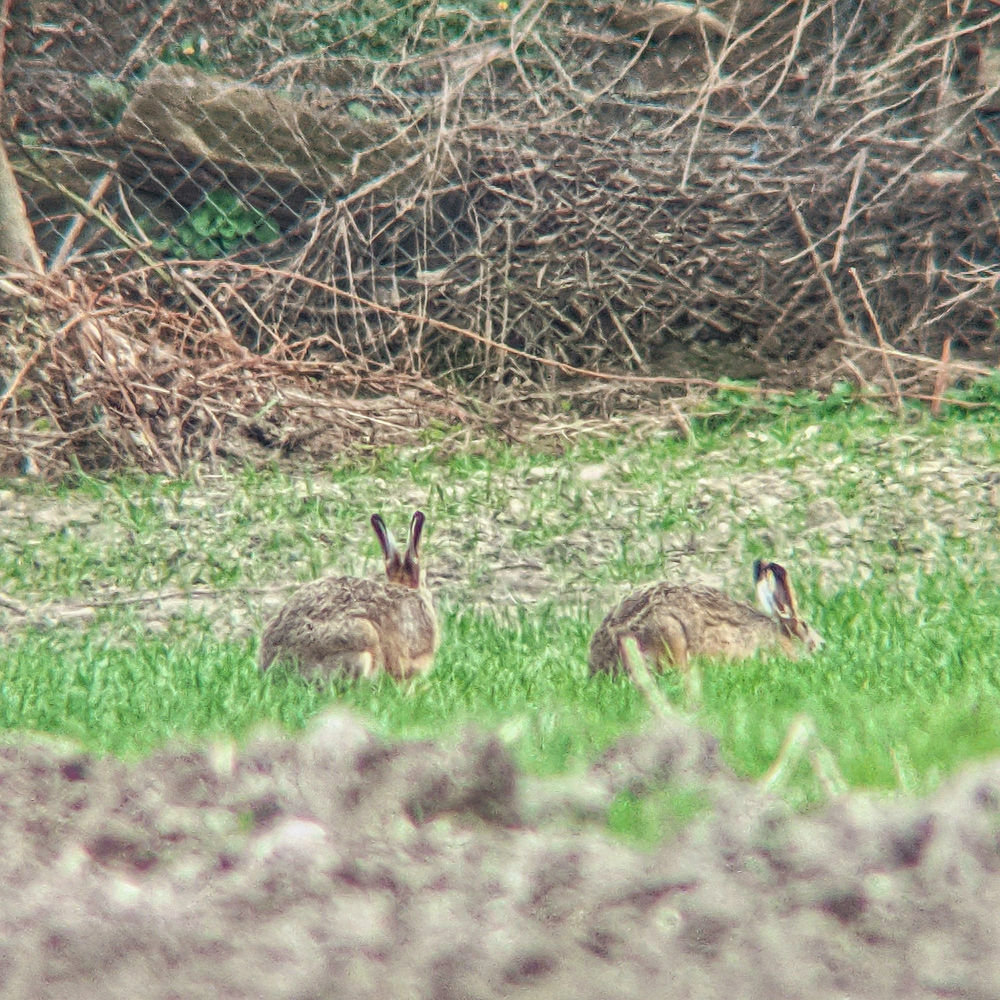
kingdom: Animalia
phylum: Chordata
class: Mammalia
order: Lagomorpha
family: Leporidae
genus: Lepus
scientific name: Lepus europaeus
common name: European hare
